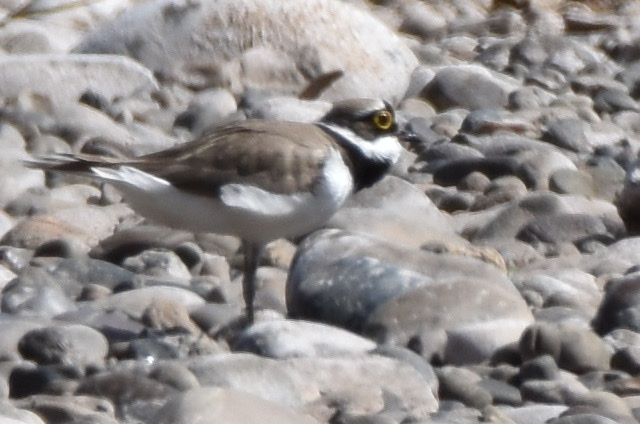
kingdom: Animalia
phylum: Chordata
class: Aves
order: Charadriiformes
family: Charadriidae
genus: Charadrius
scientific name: Charadrius dubius
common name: Little ringed plover
